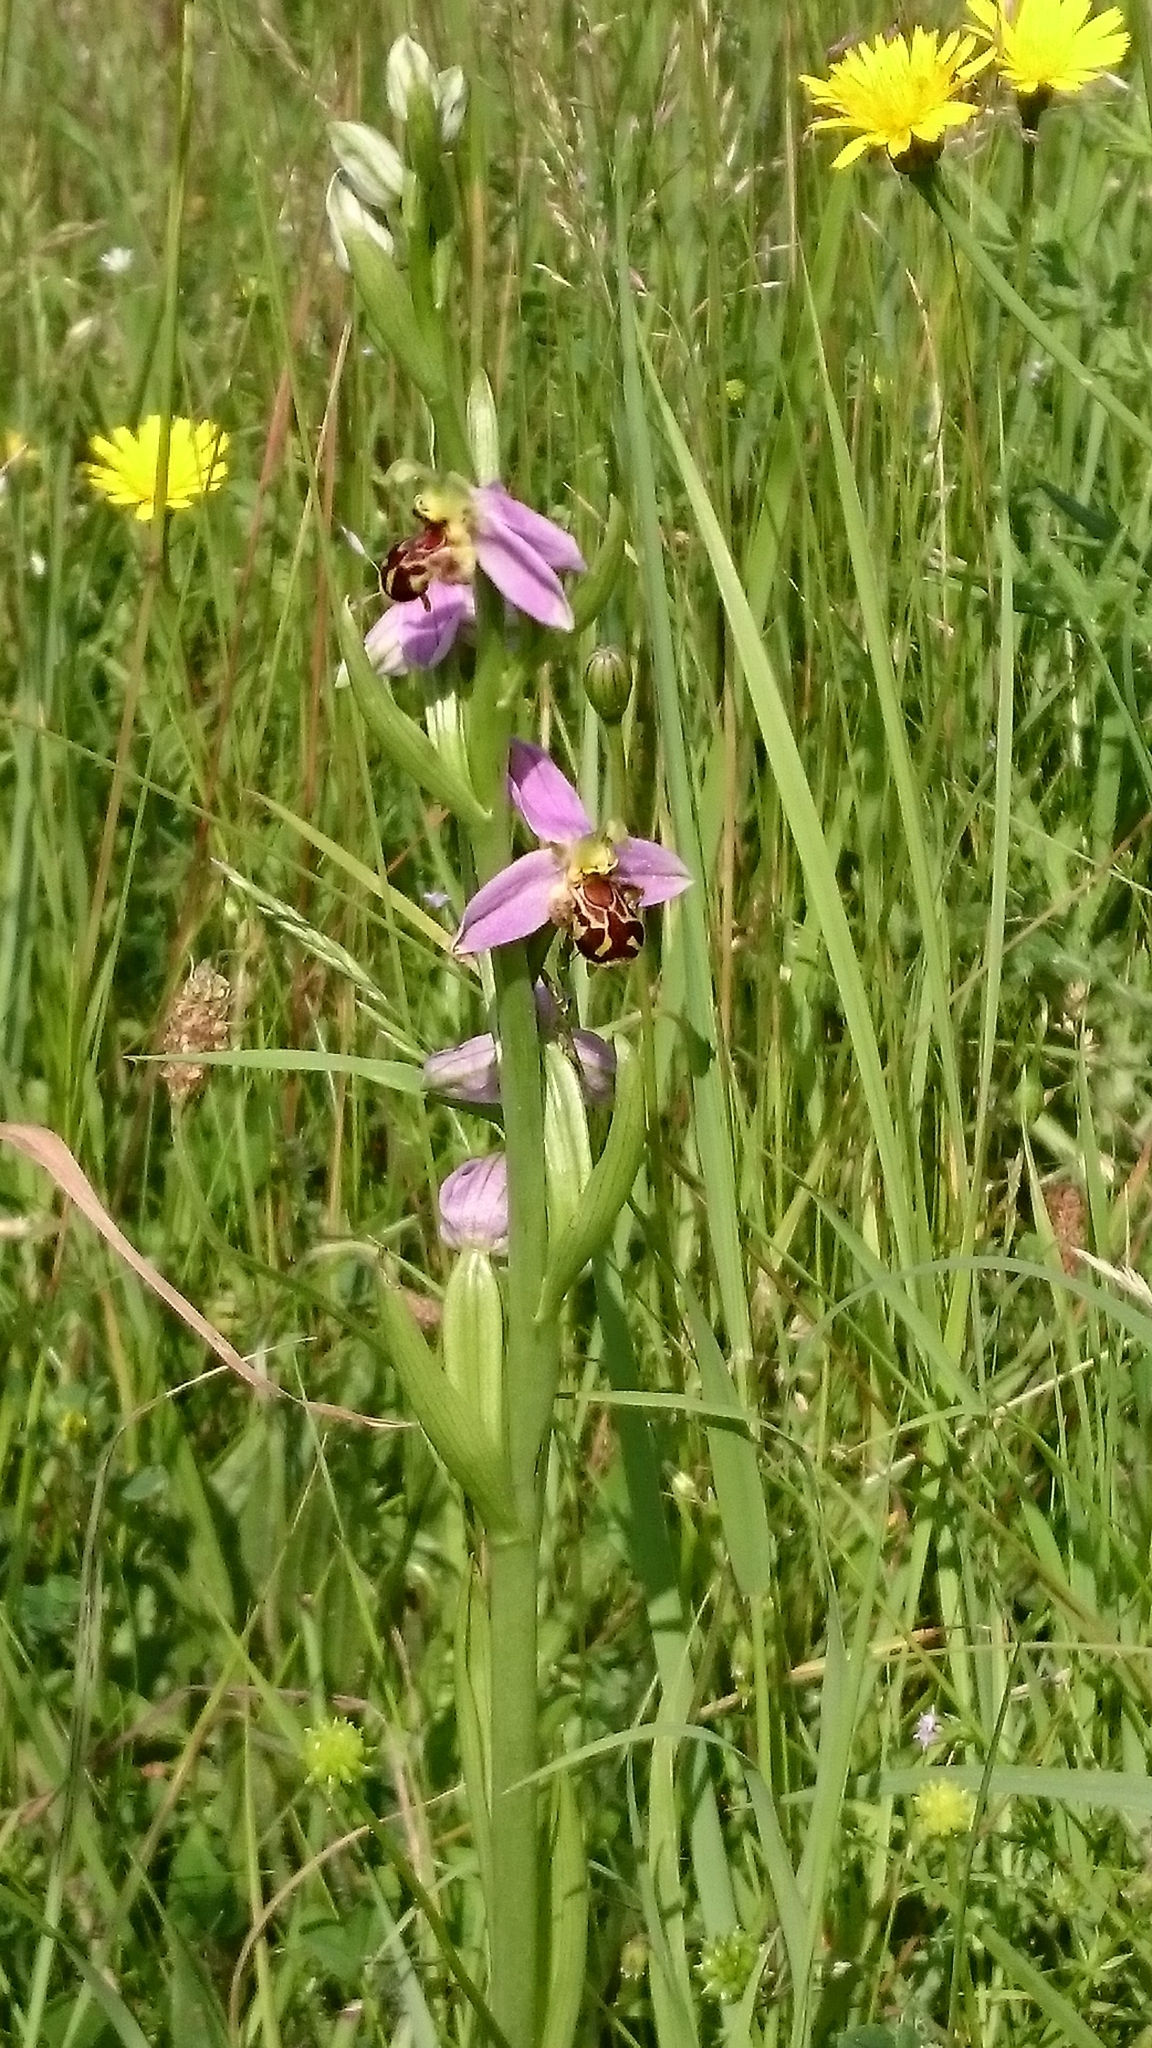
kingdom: Plantae
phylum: Tracheophyta
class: Liliopsida
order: Asparagales
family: Orchidaceae
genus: Ophrys
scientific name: Ophrys apifera
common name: Bee orchid
